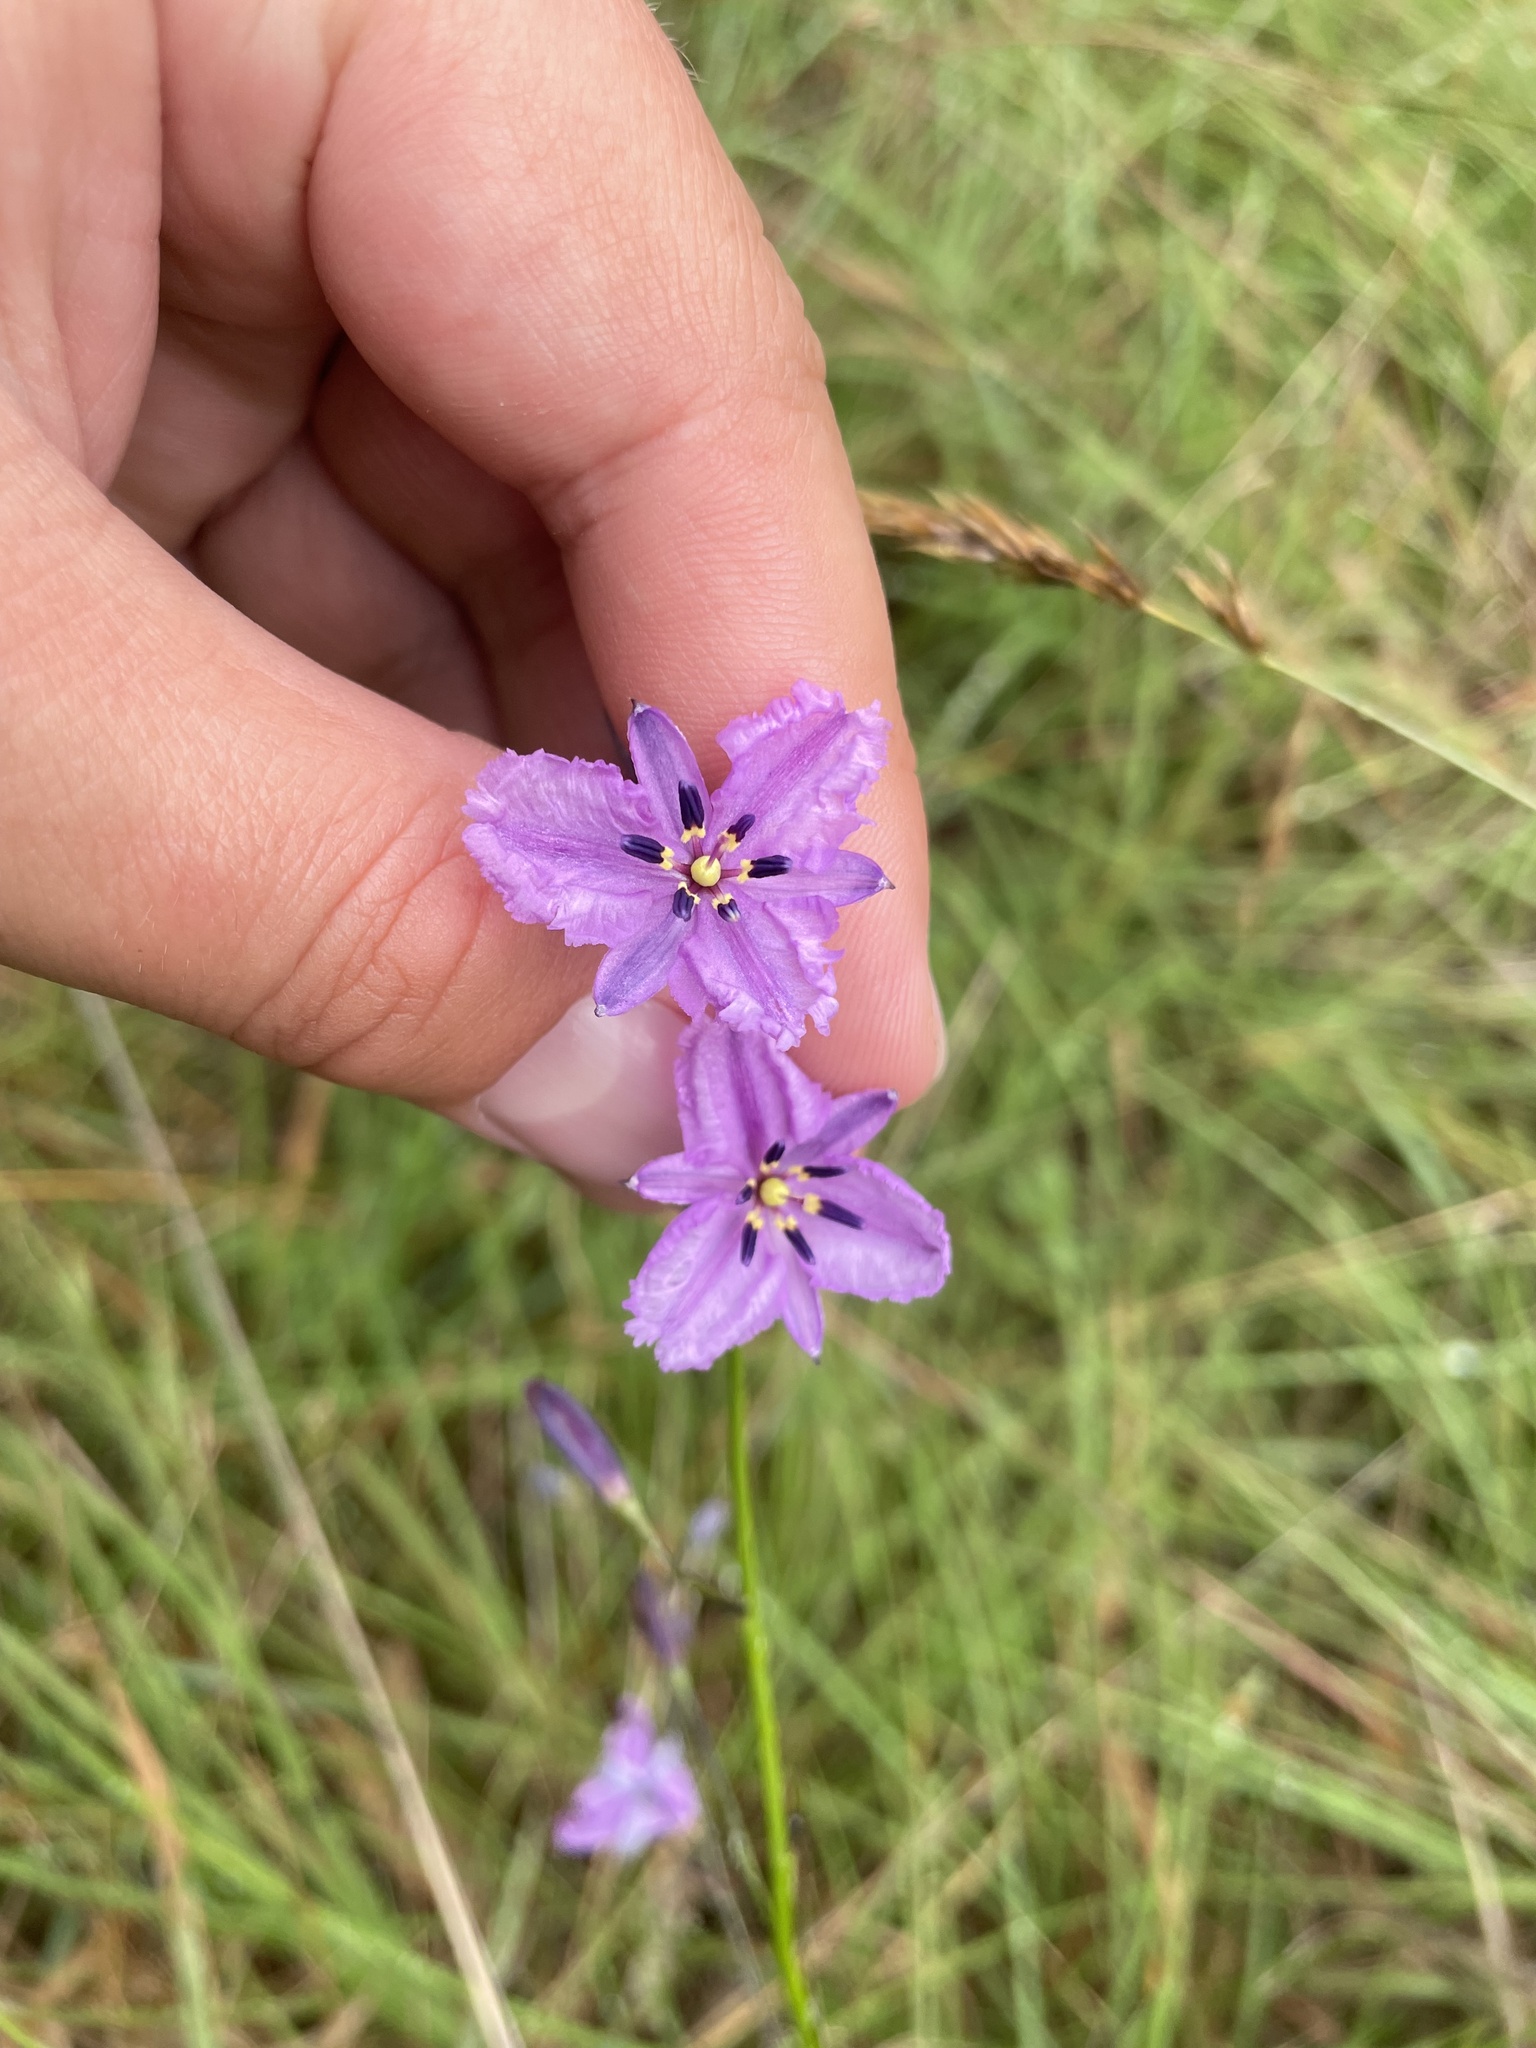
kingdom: Plantae
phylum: Tracheophyta
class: Liliopsida
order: Asparagales
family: Asparagaceae
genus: Arthropodium
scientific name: Arthropodium strictum
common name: Chocolate-lily
